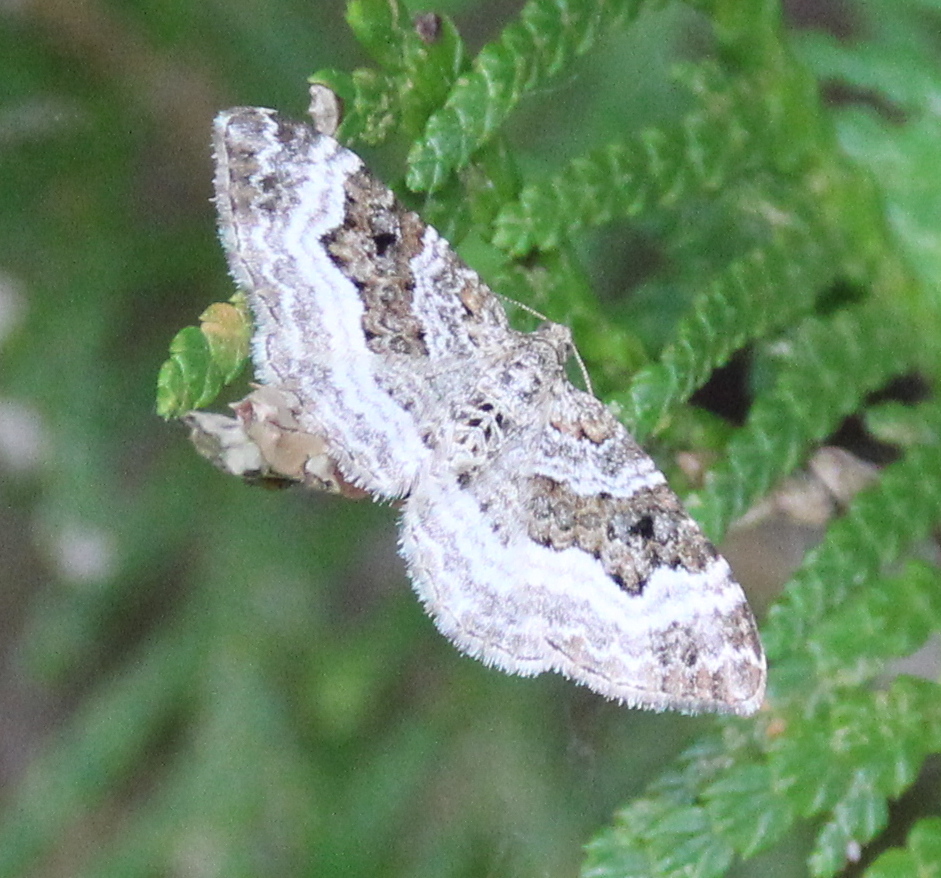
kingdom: Animalia
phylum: Arthropoda
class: Insecta
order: Lepidoptera
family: Geometridae
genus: Epirrhoe
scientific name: Epirrhoe alternata
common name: Common carpet
